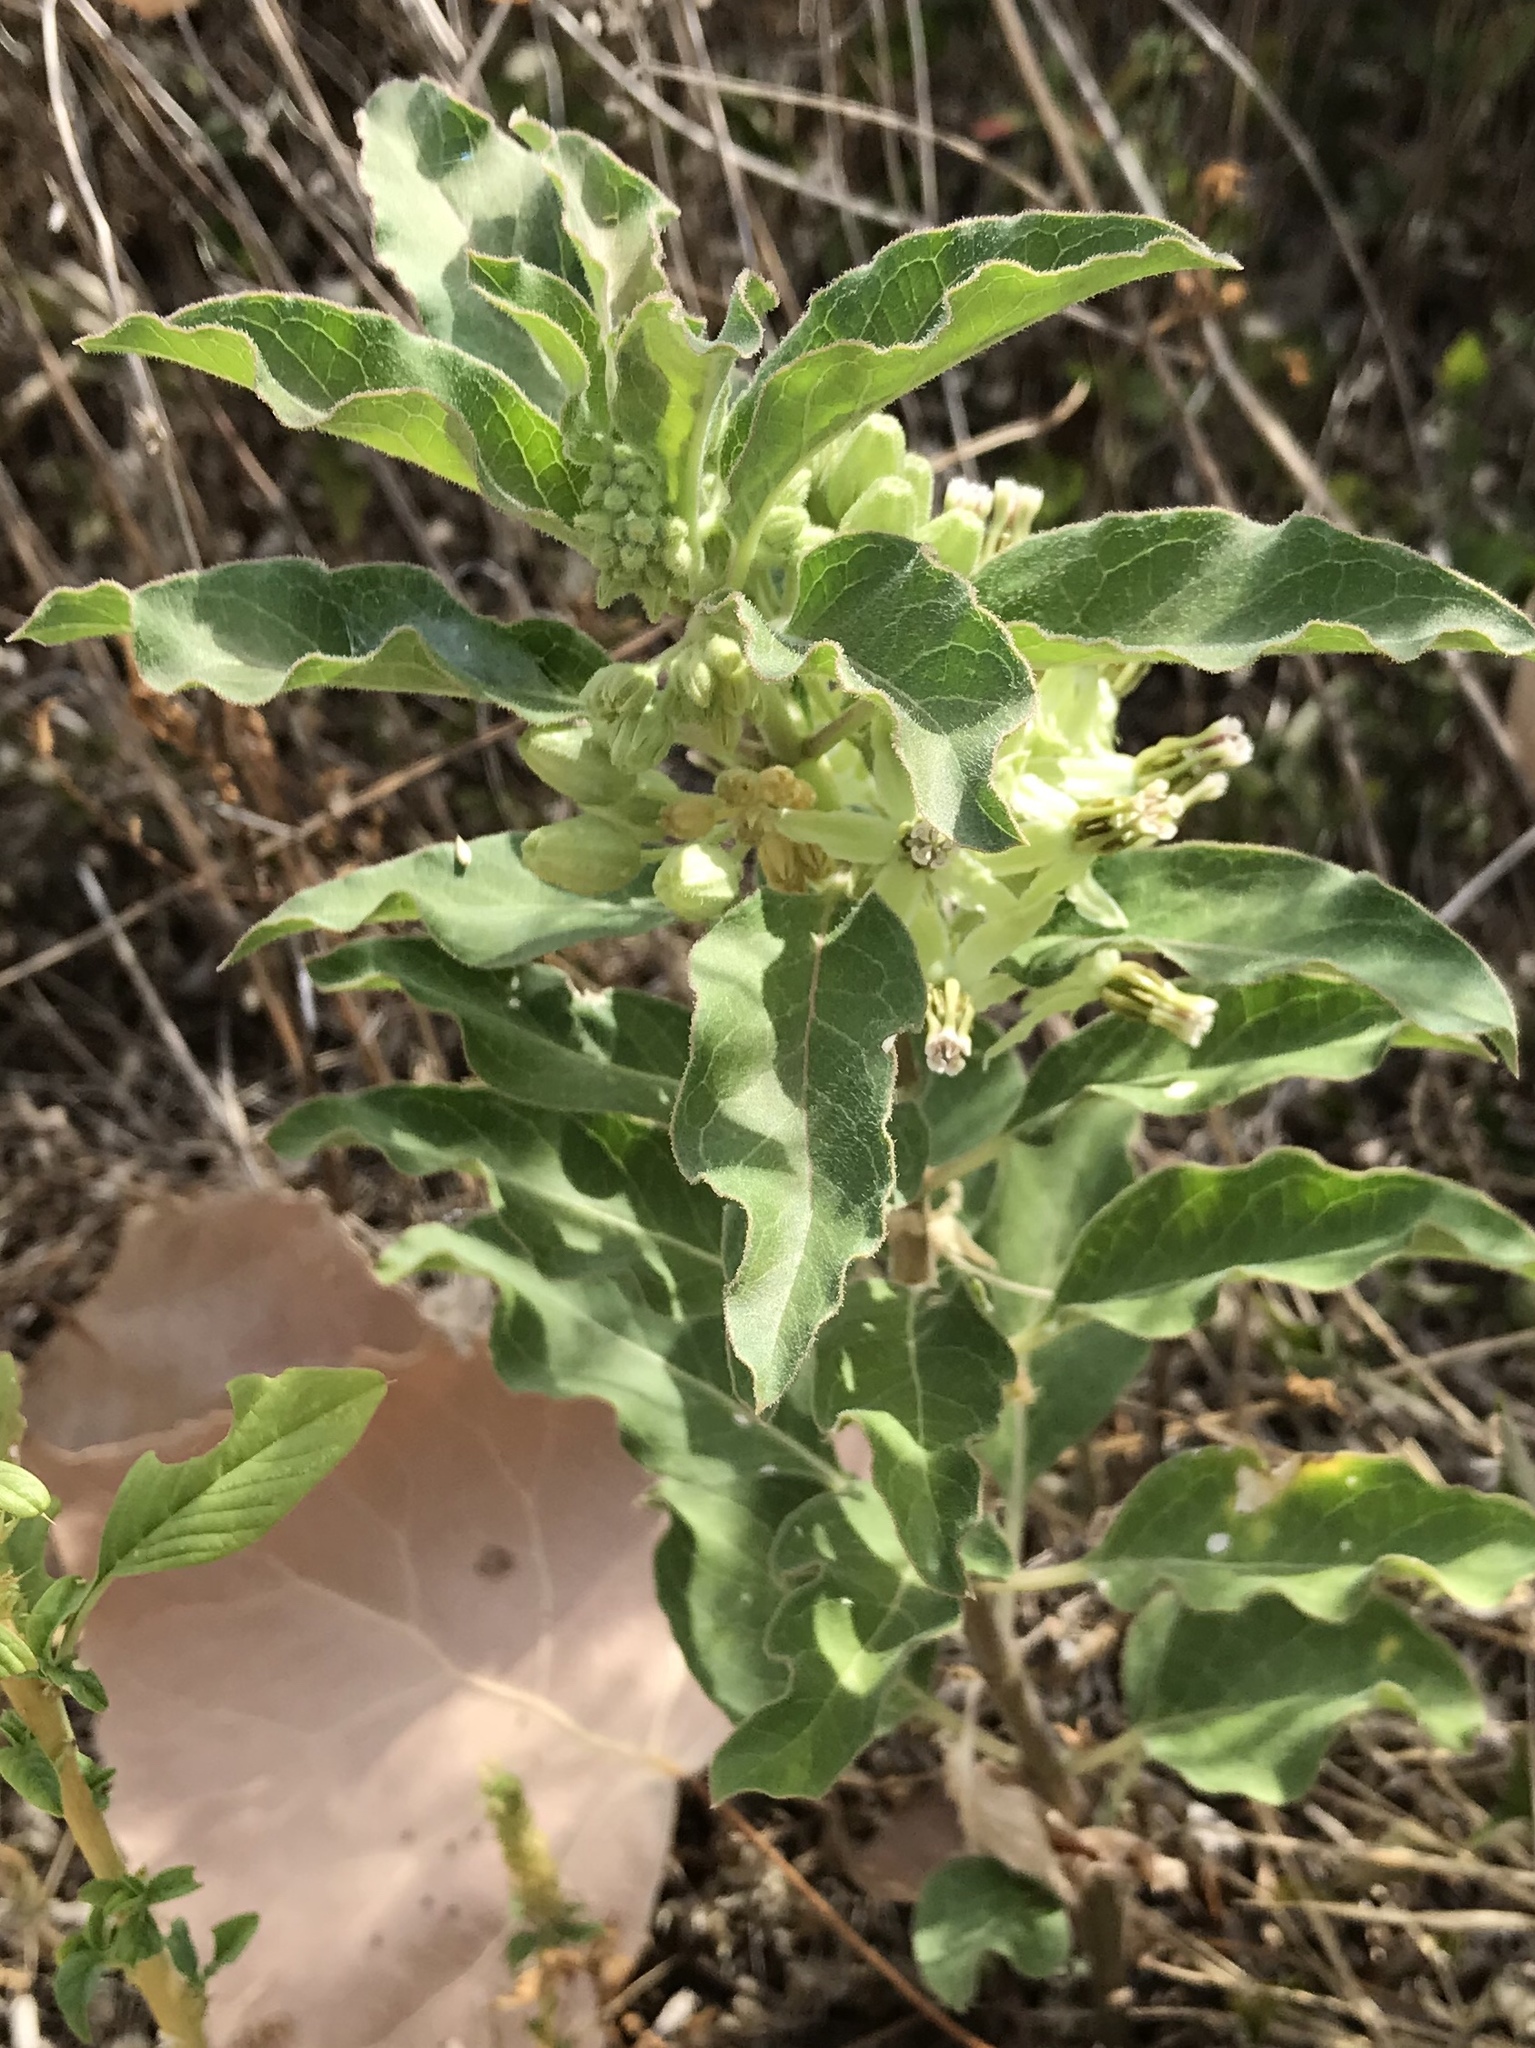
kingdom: Plantae
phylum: Tracheophyta
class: Magnoliopsida
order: Gentianales
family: Apocynaceae
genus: Asclepias
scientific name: Asclepias oenotheroides
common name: Zizotes milkweed
